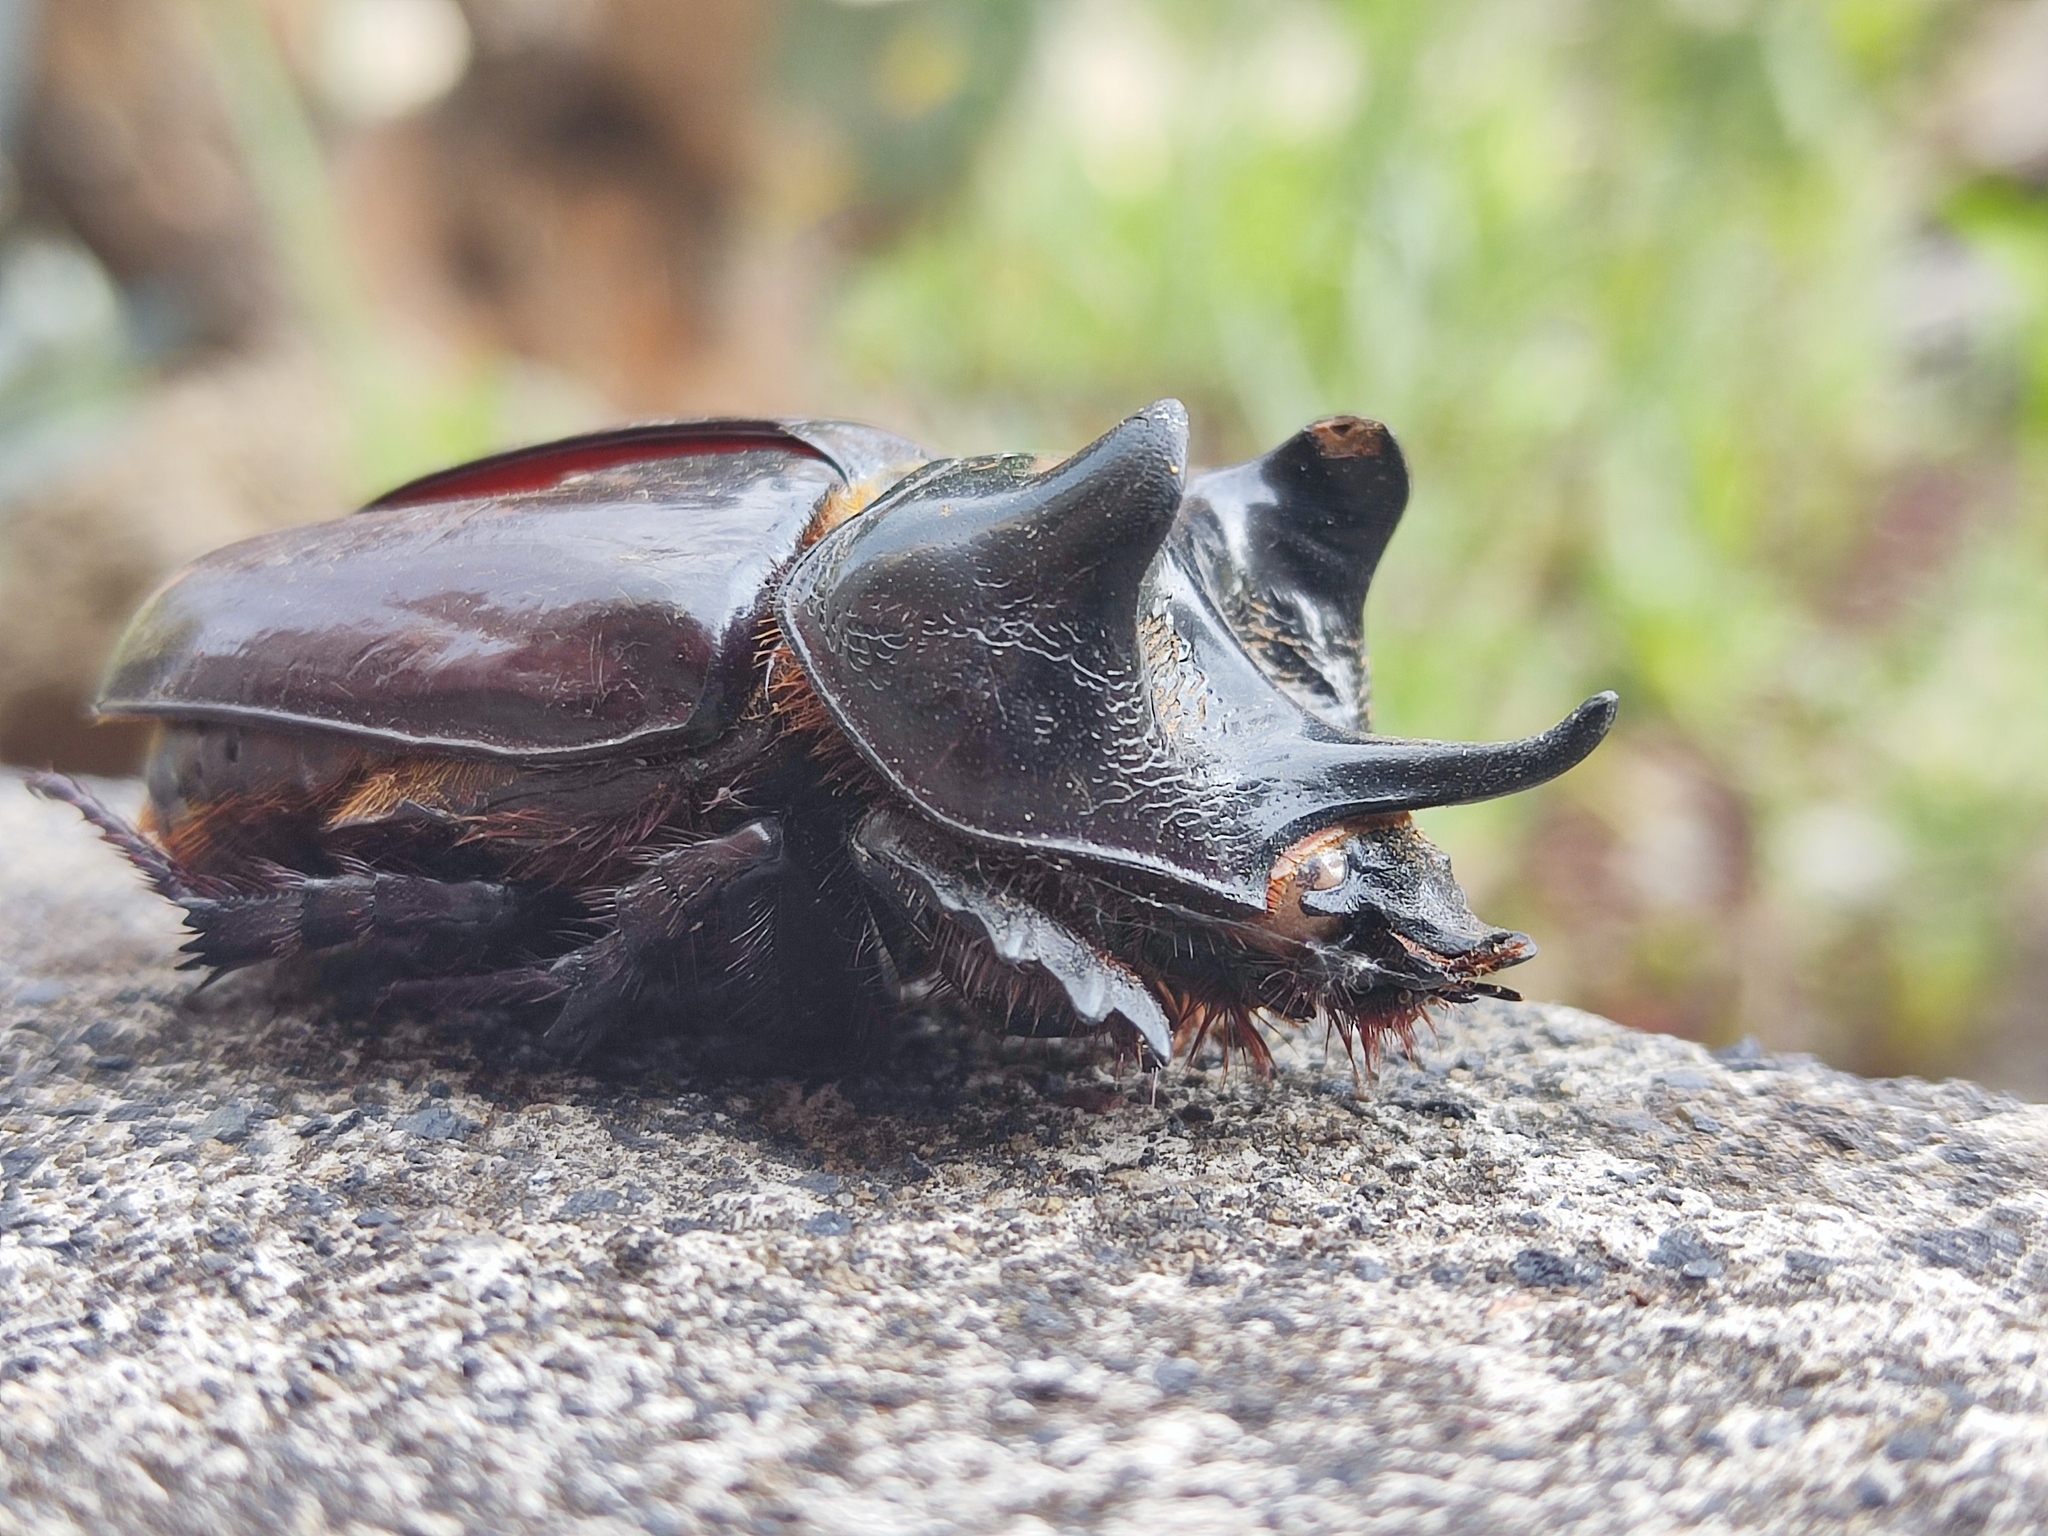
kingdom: Animalia
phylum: Arthropoda
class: Insecta
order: Coleoptera
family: Scarabaeidae
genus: Strategus
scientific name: Strategus aloeus
